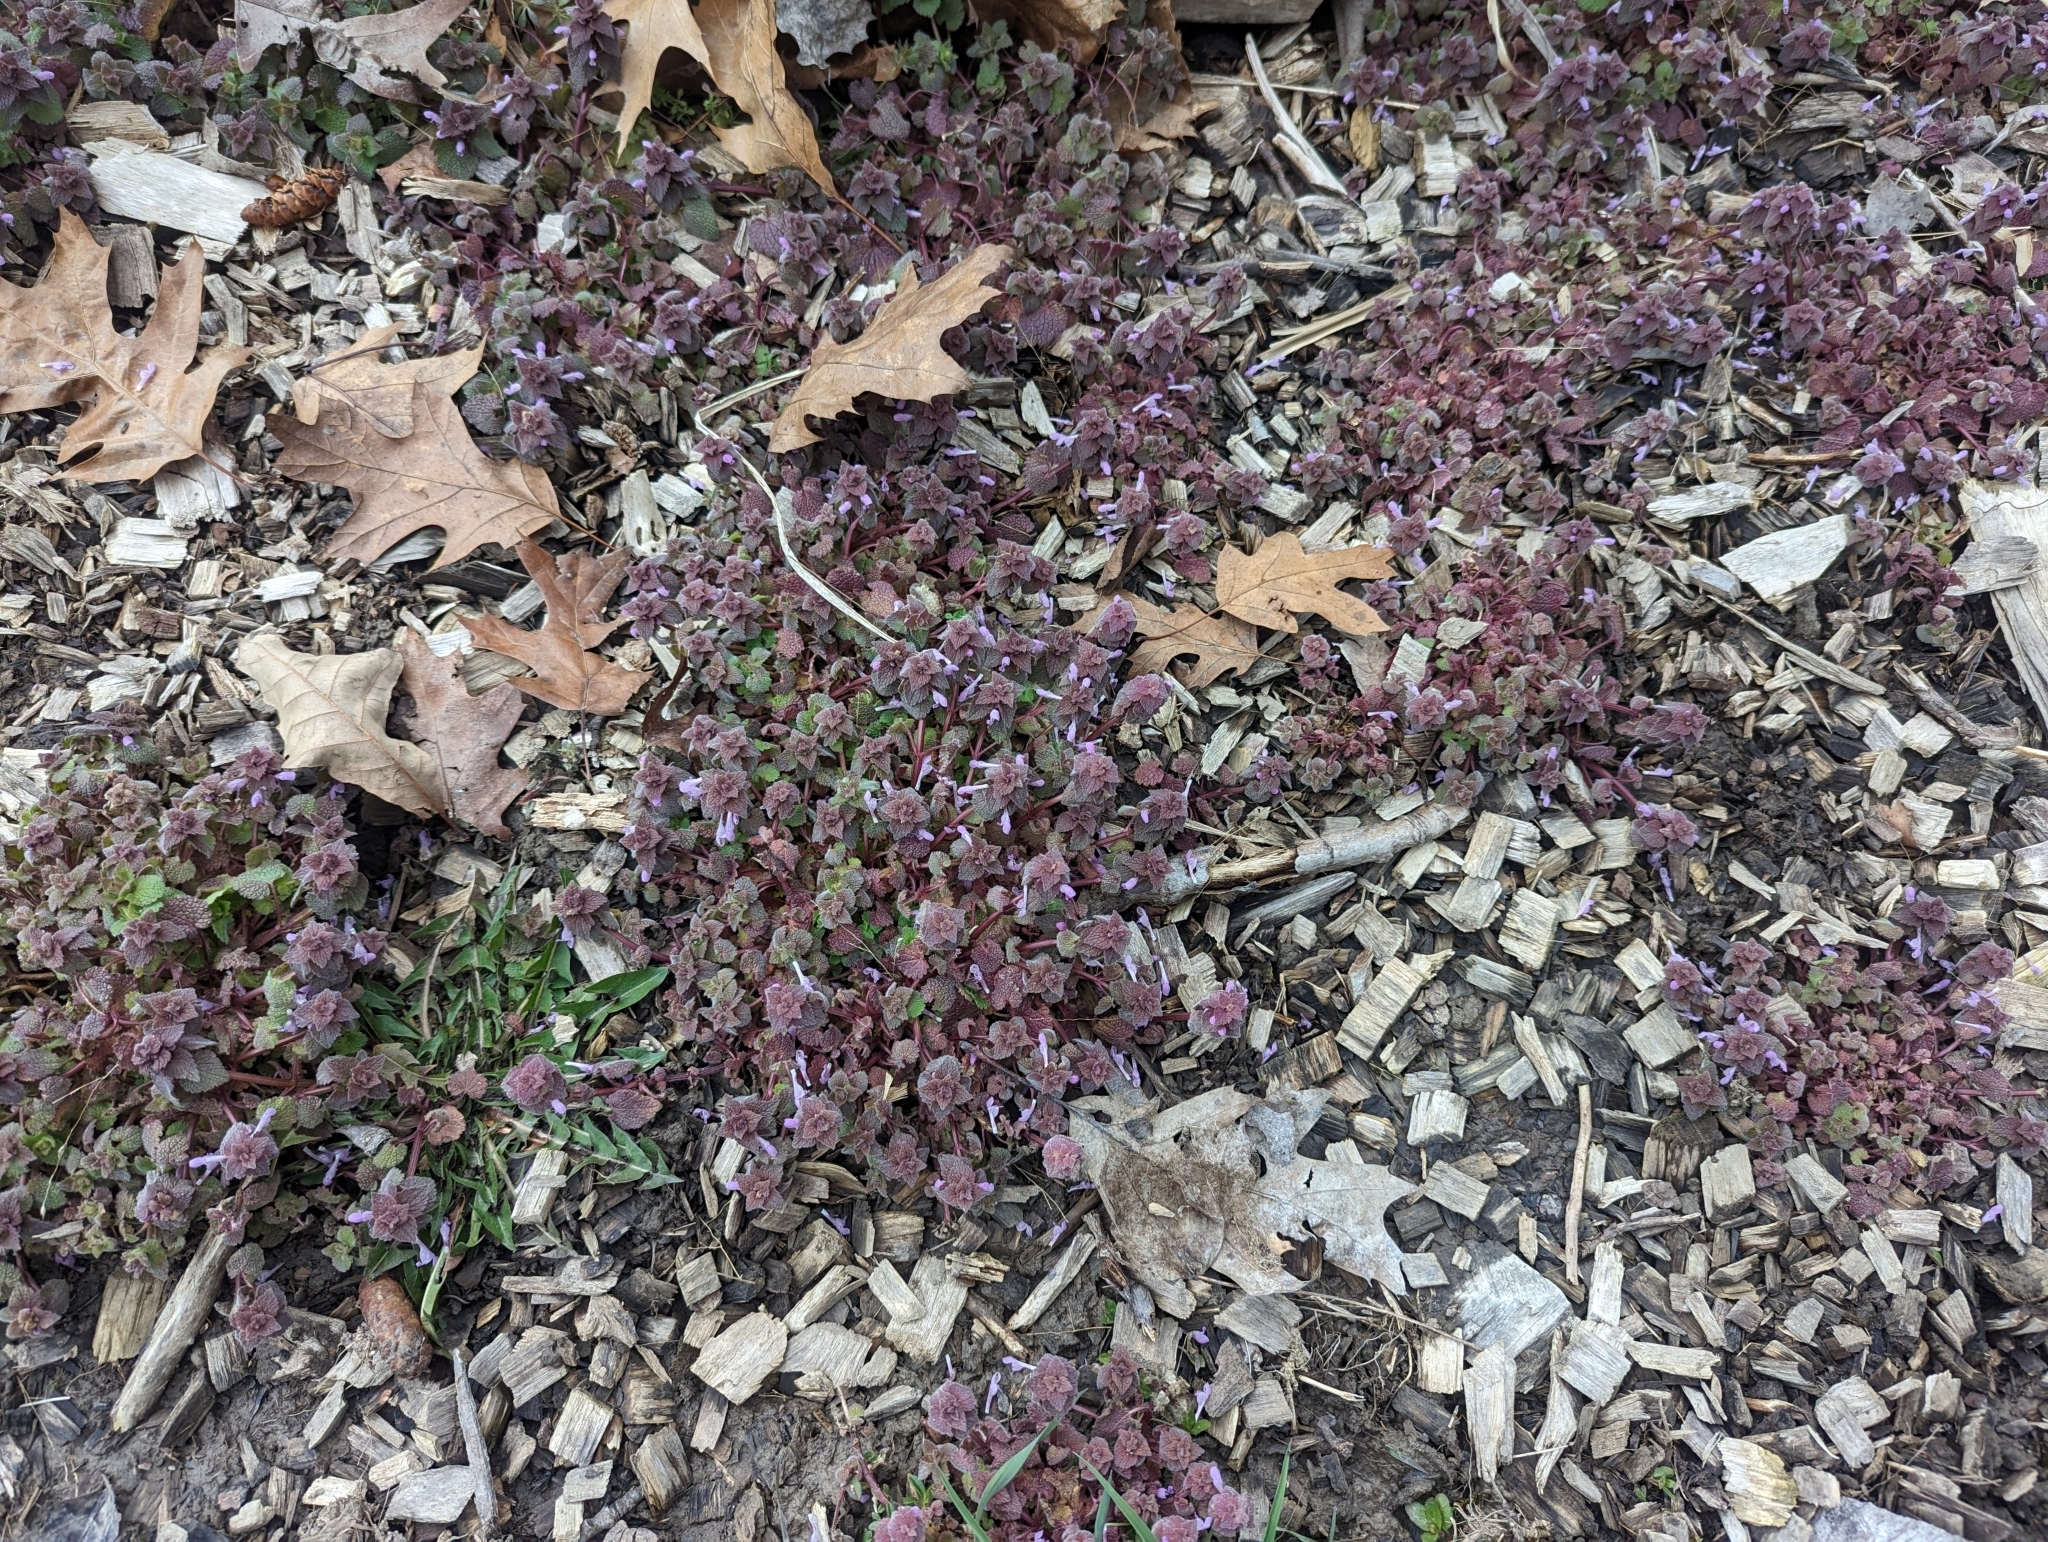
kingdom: Plantae
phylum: Tracheophyta
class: Magnoliopsida
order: Lamiales
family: Lamiaceae
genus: Lamium
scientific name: Lamium purpureum
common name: Red dead-nettle
